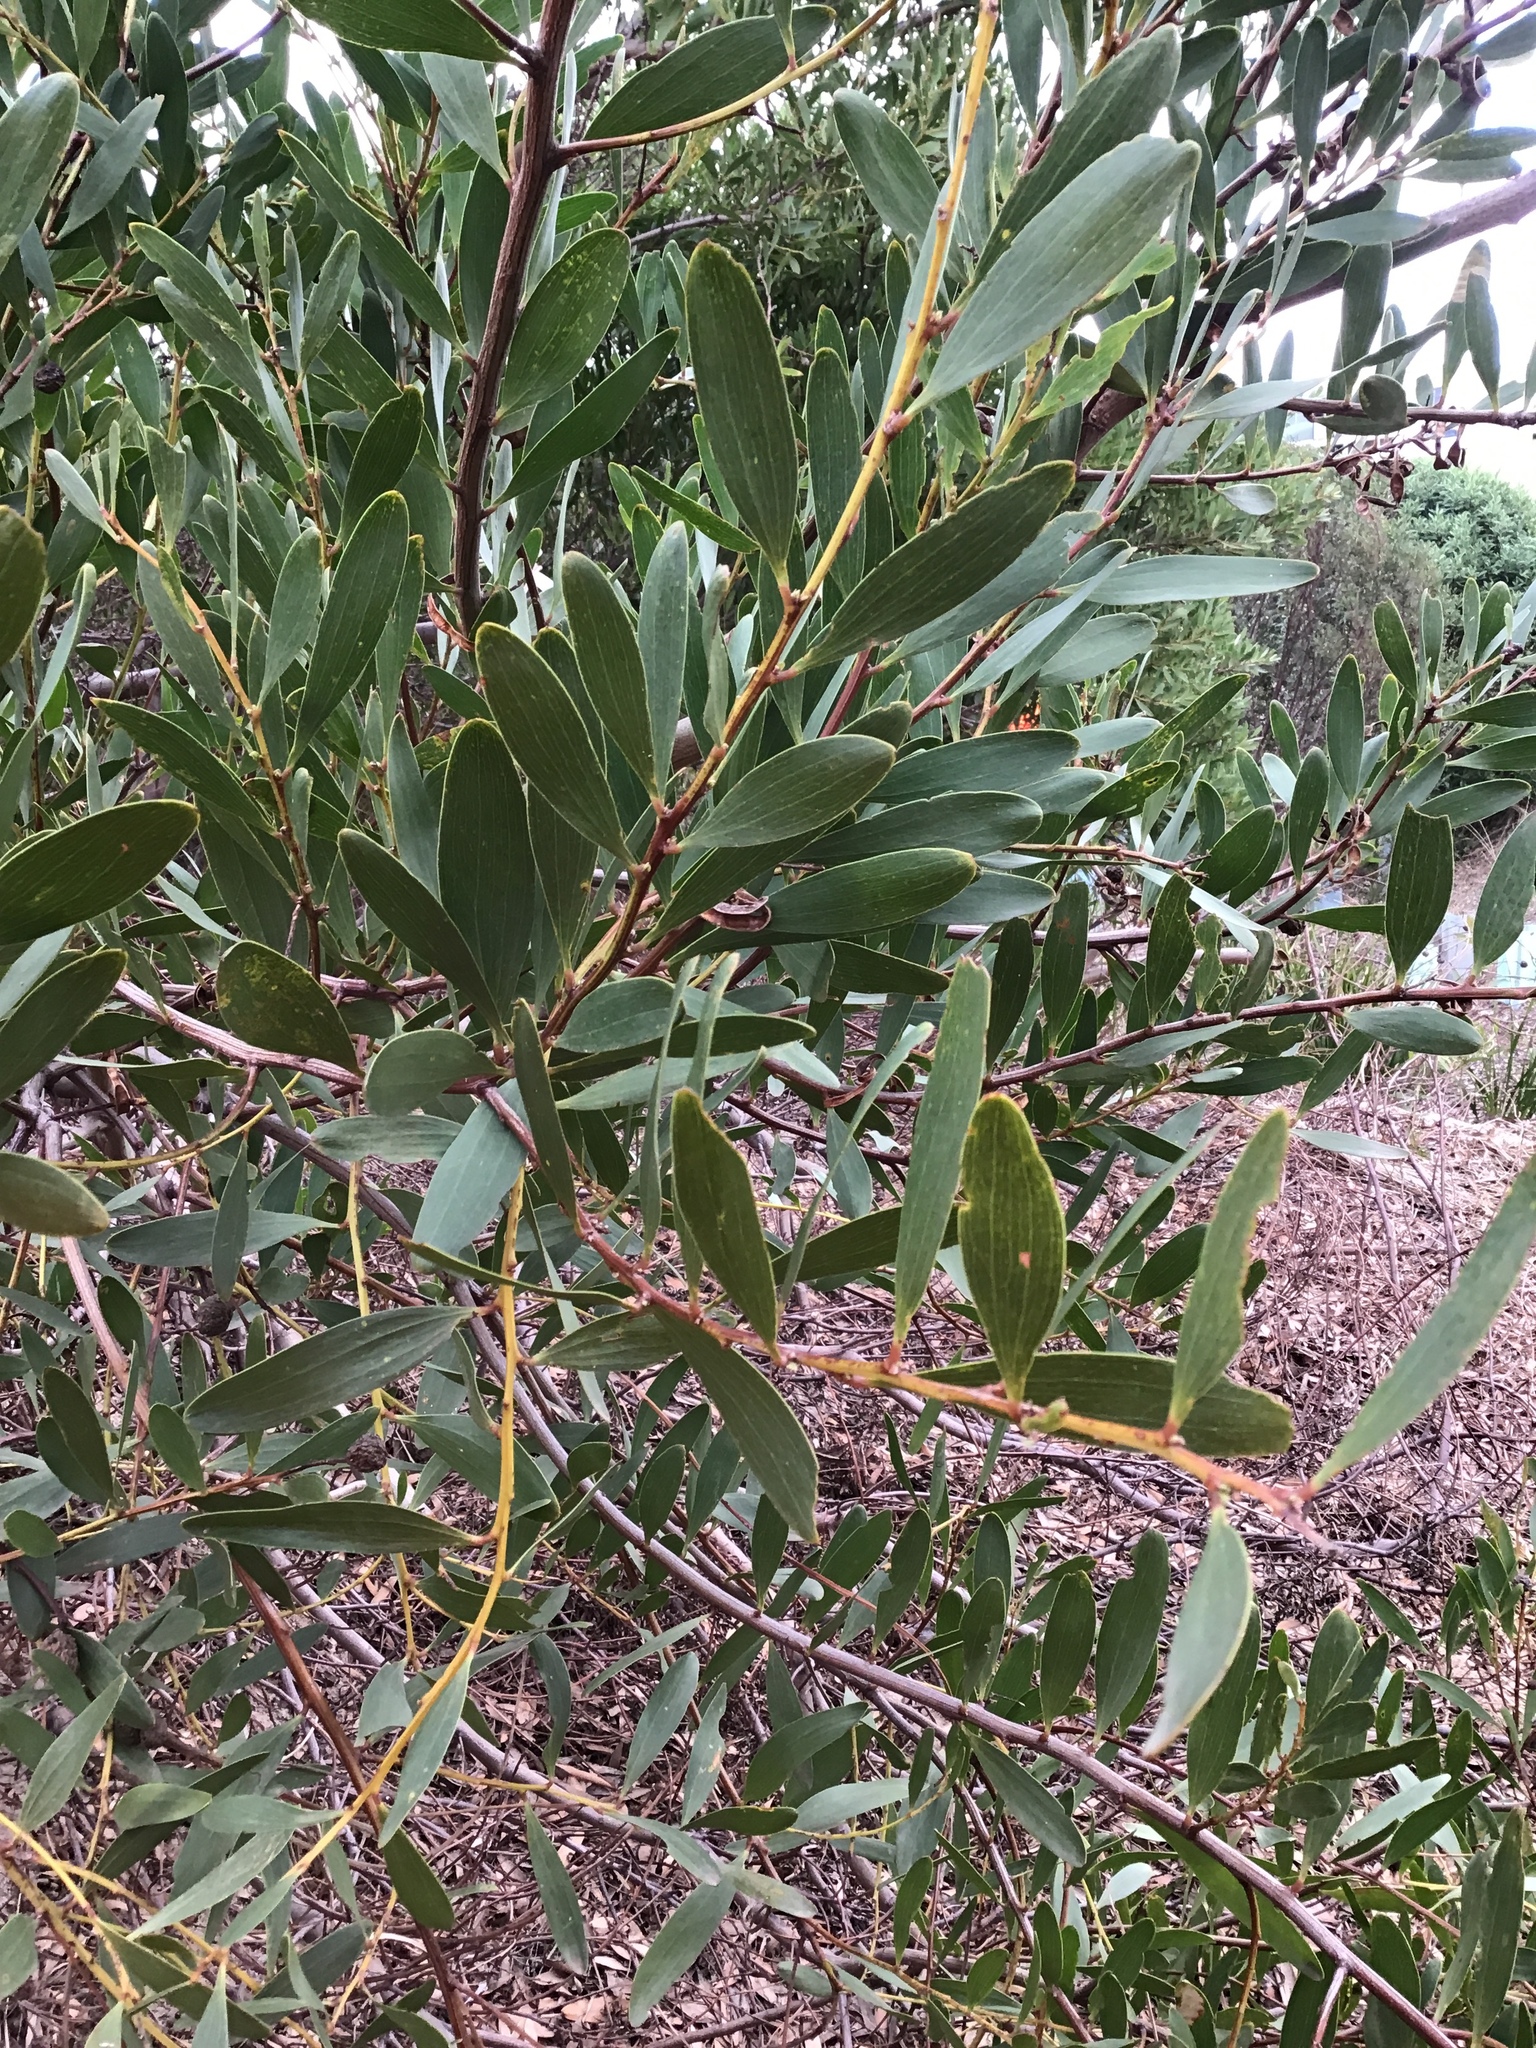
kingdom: Plantae
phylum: Tracheophyta
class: Magnoliopsida
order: Fabales
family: Fabaceae
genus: Acacia
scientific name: Acacia longifolia
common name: Sydney golden wattle
